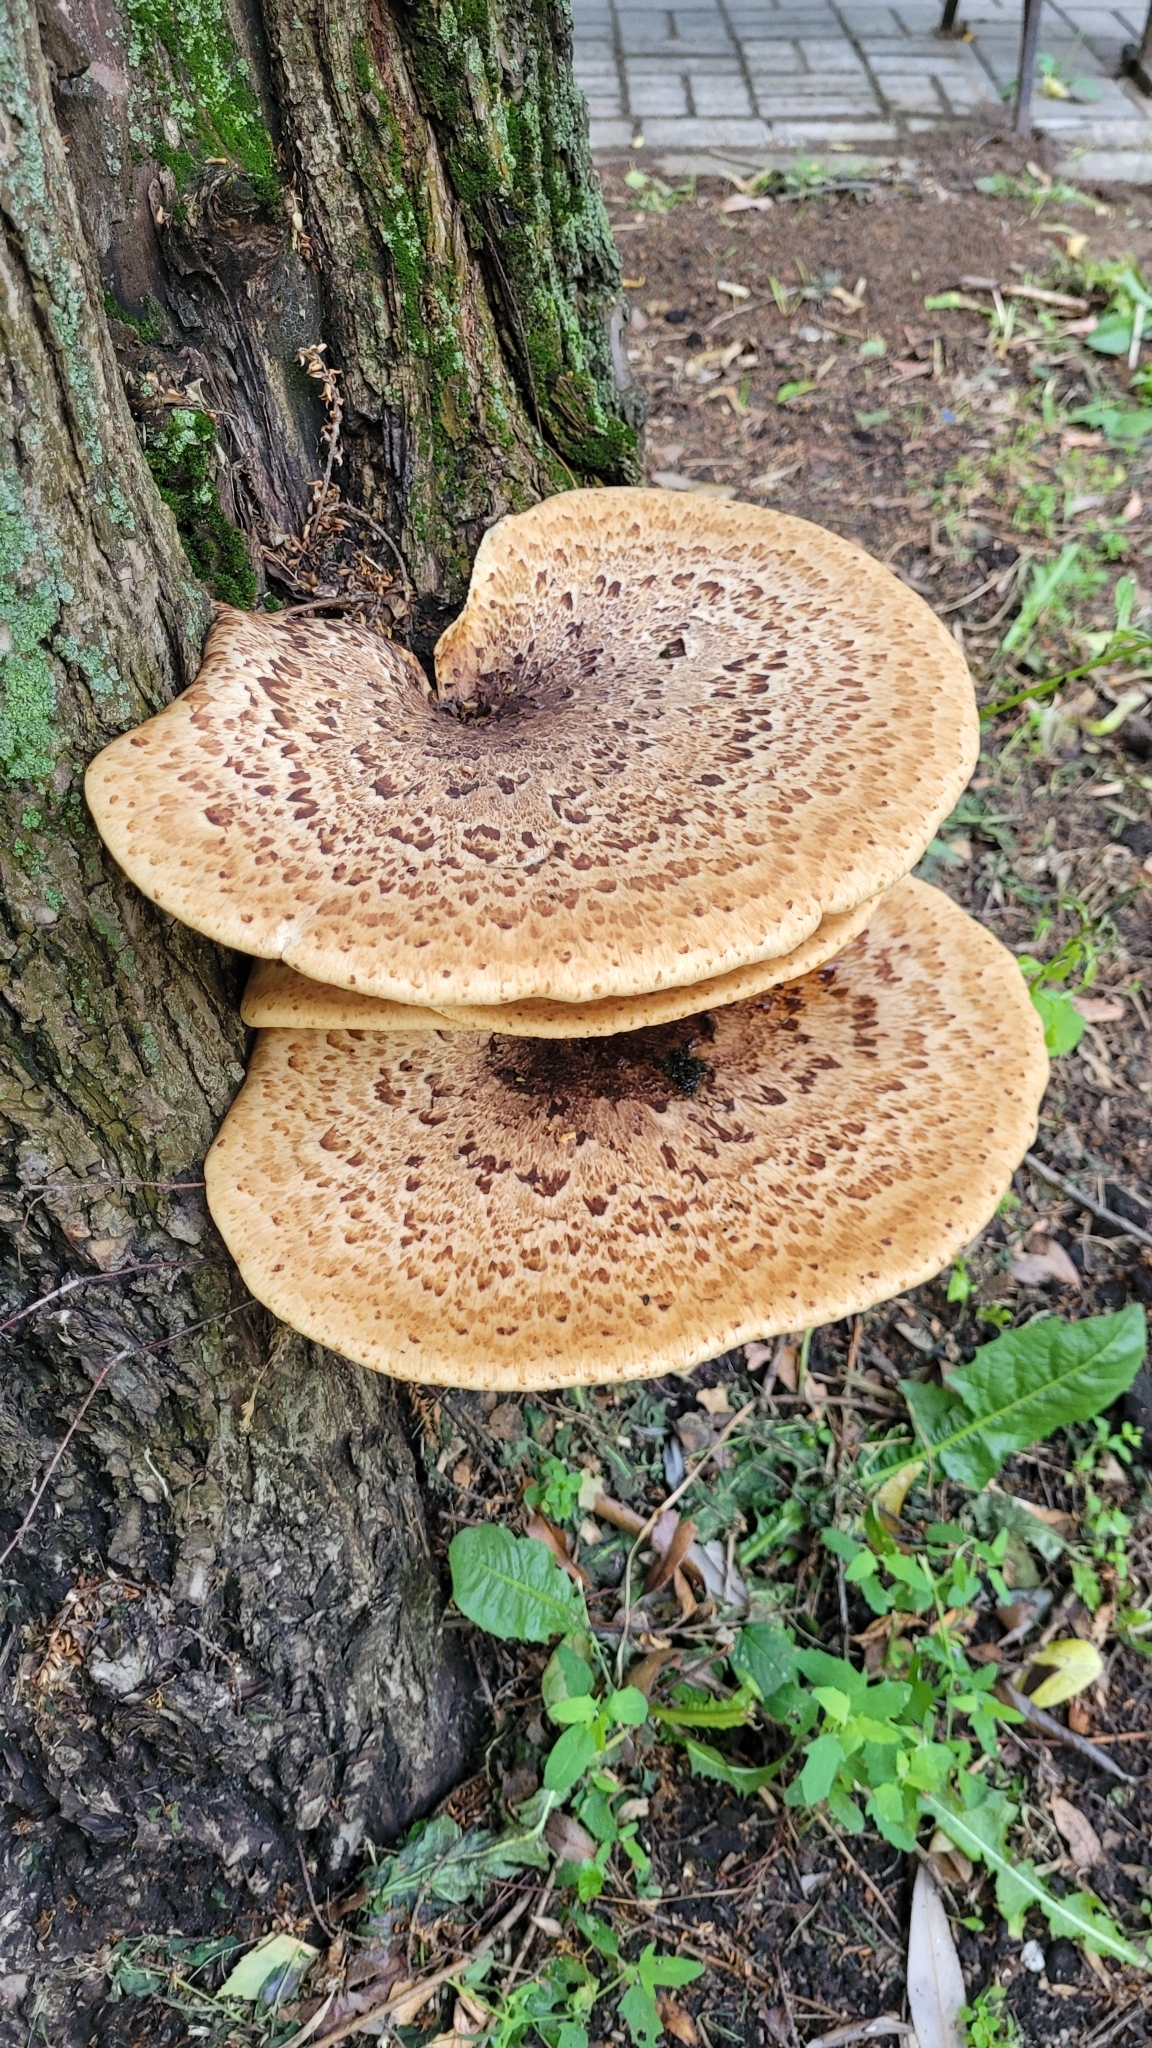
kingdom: Fungi
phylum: Basidiomycota
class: Agaricomycetes
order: Polyporales
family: Polyporaceae
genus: Cerioporus
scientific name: Cerioporus squamosus
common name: Dryad's saddle
